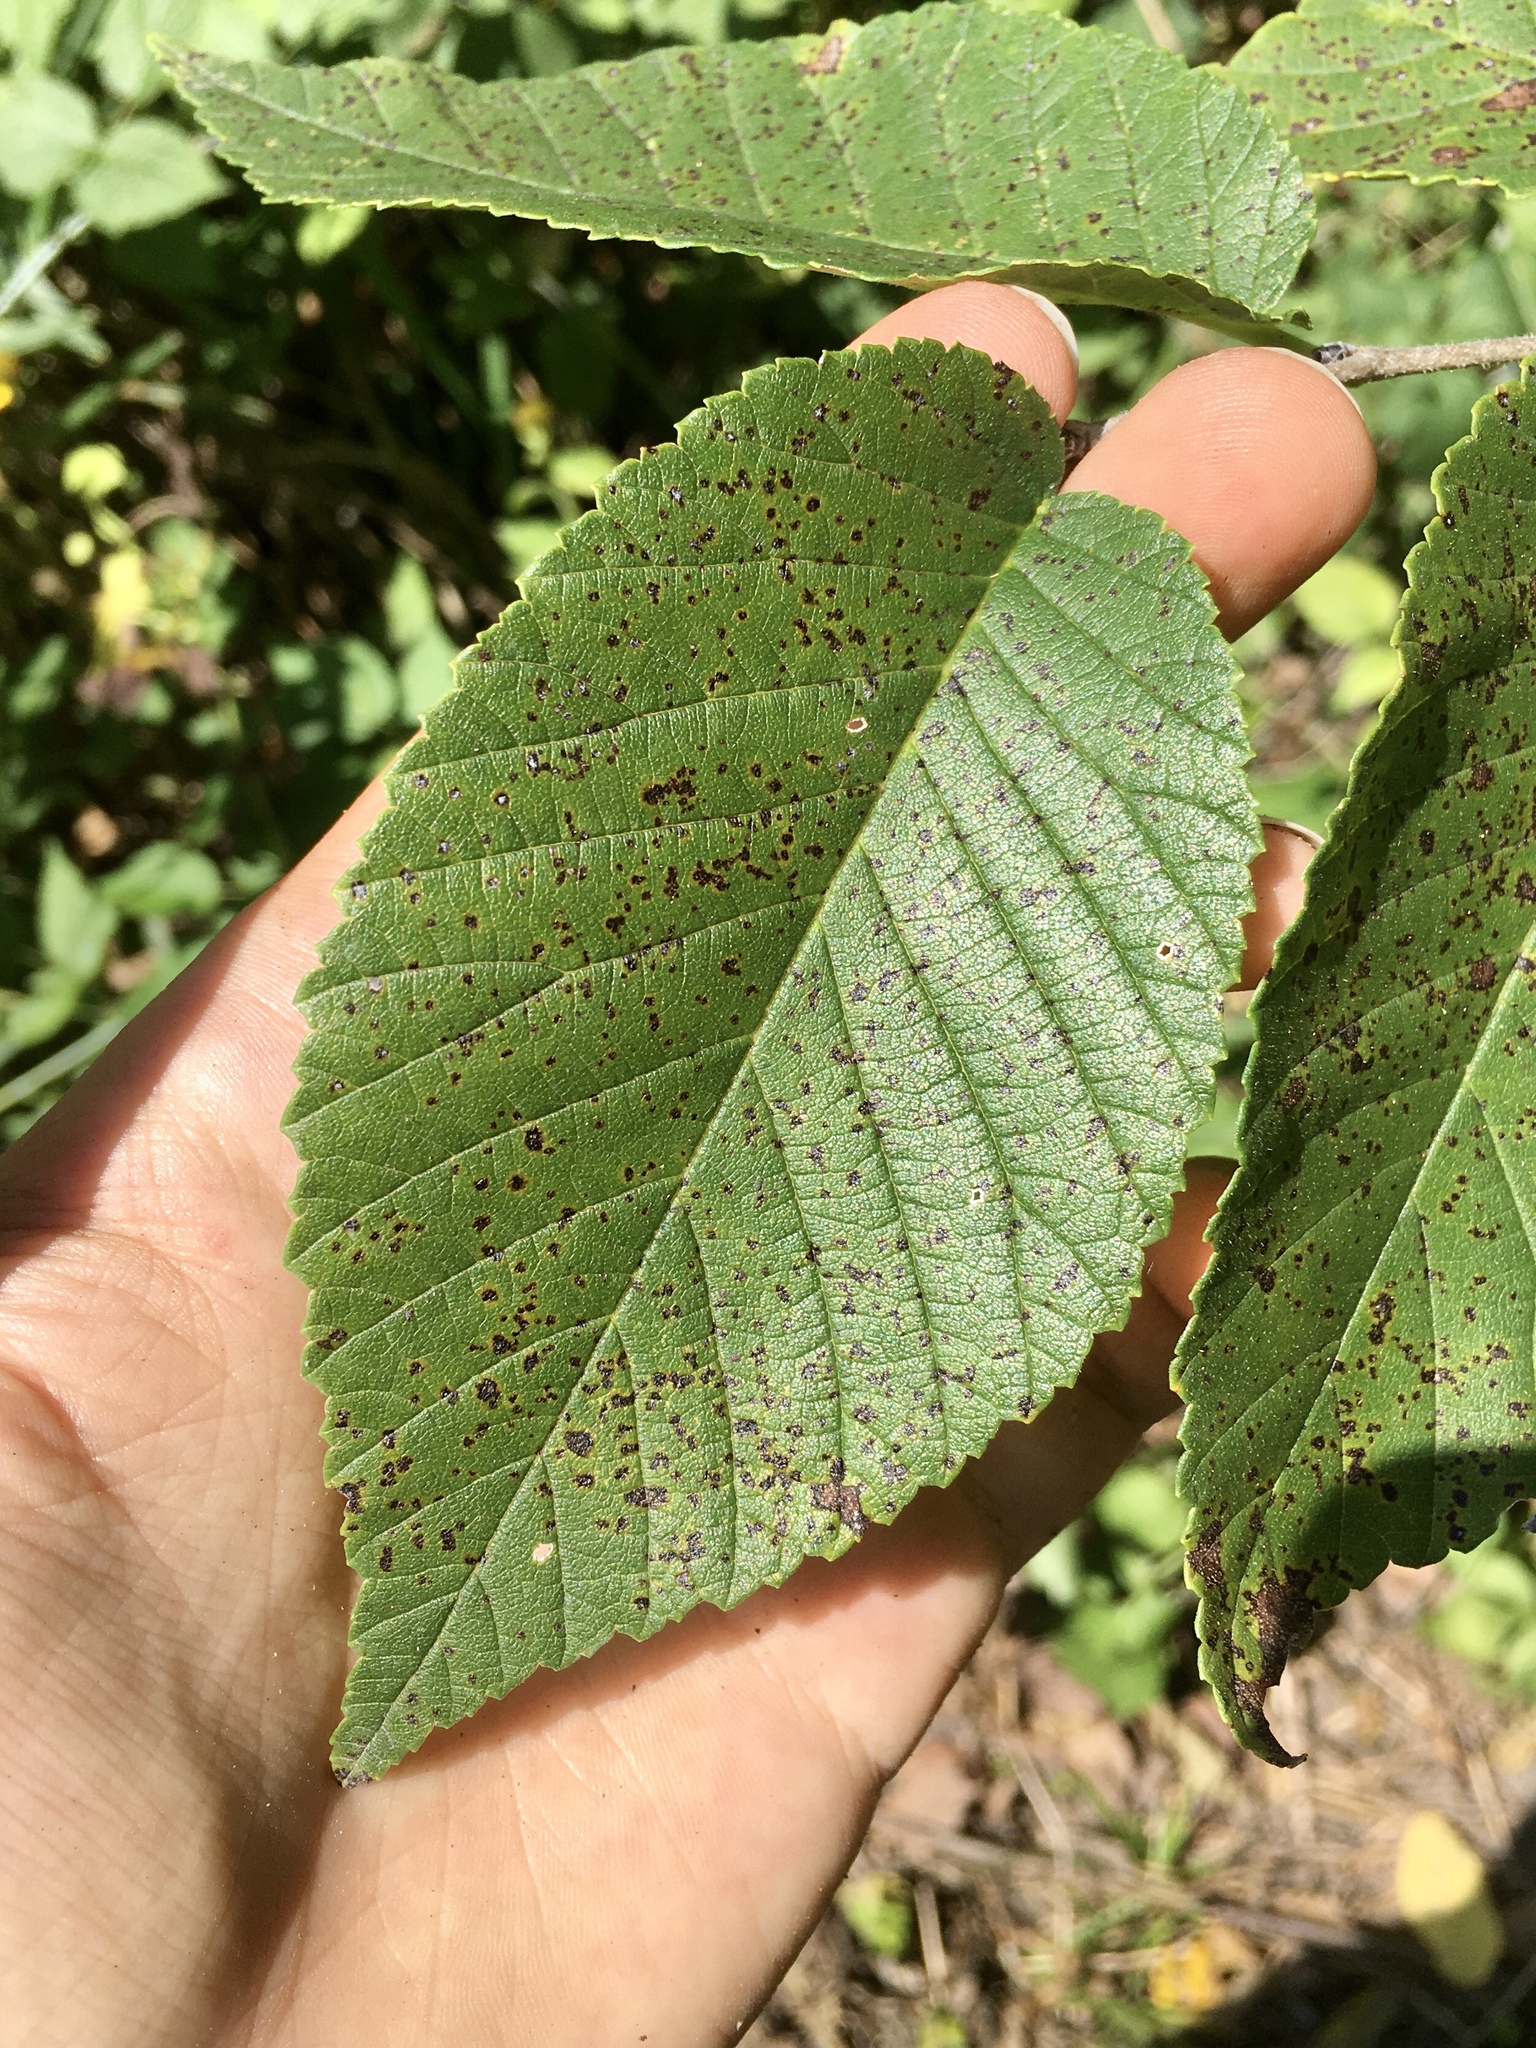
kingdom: Plantae
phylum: Tracheophyta
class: Magnoliopsida
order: Rosales
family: Ulmaceae
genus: Ulmus
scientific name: Ulmus rubra
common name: Slippery elm
